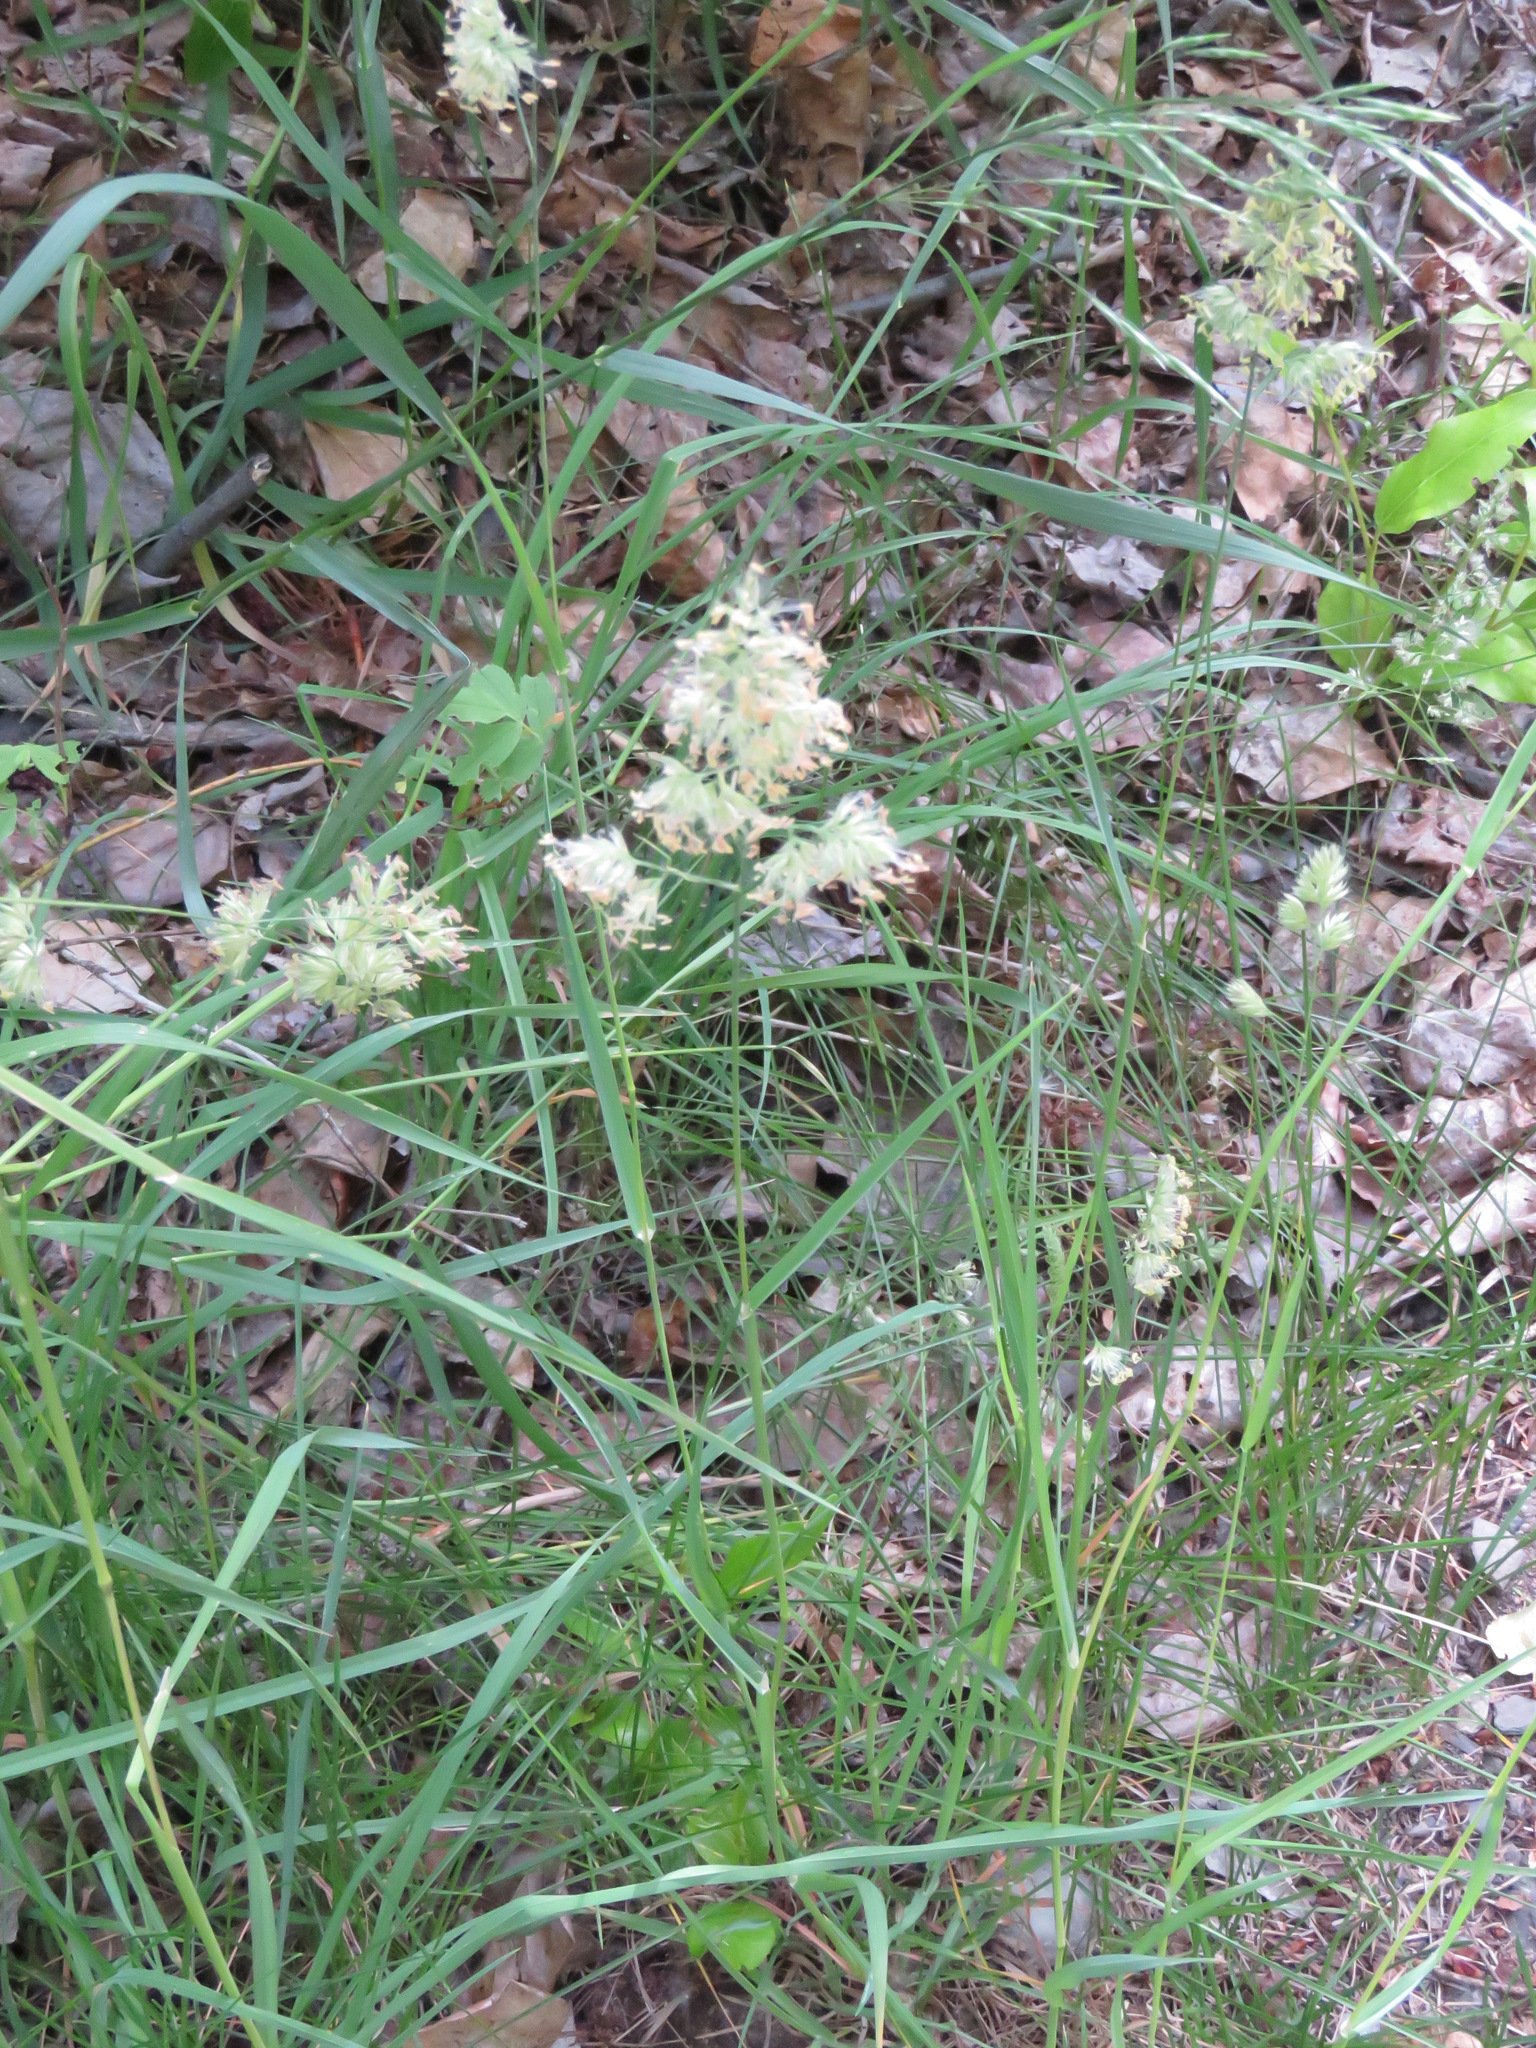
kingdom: Plantae
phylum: Tracheophyta
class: Liliopsida
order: Poales
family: Poaceae
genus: Dactylis
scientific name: Dactylis glomerata
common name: Orchardgrass
